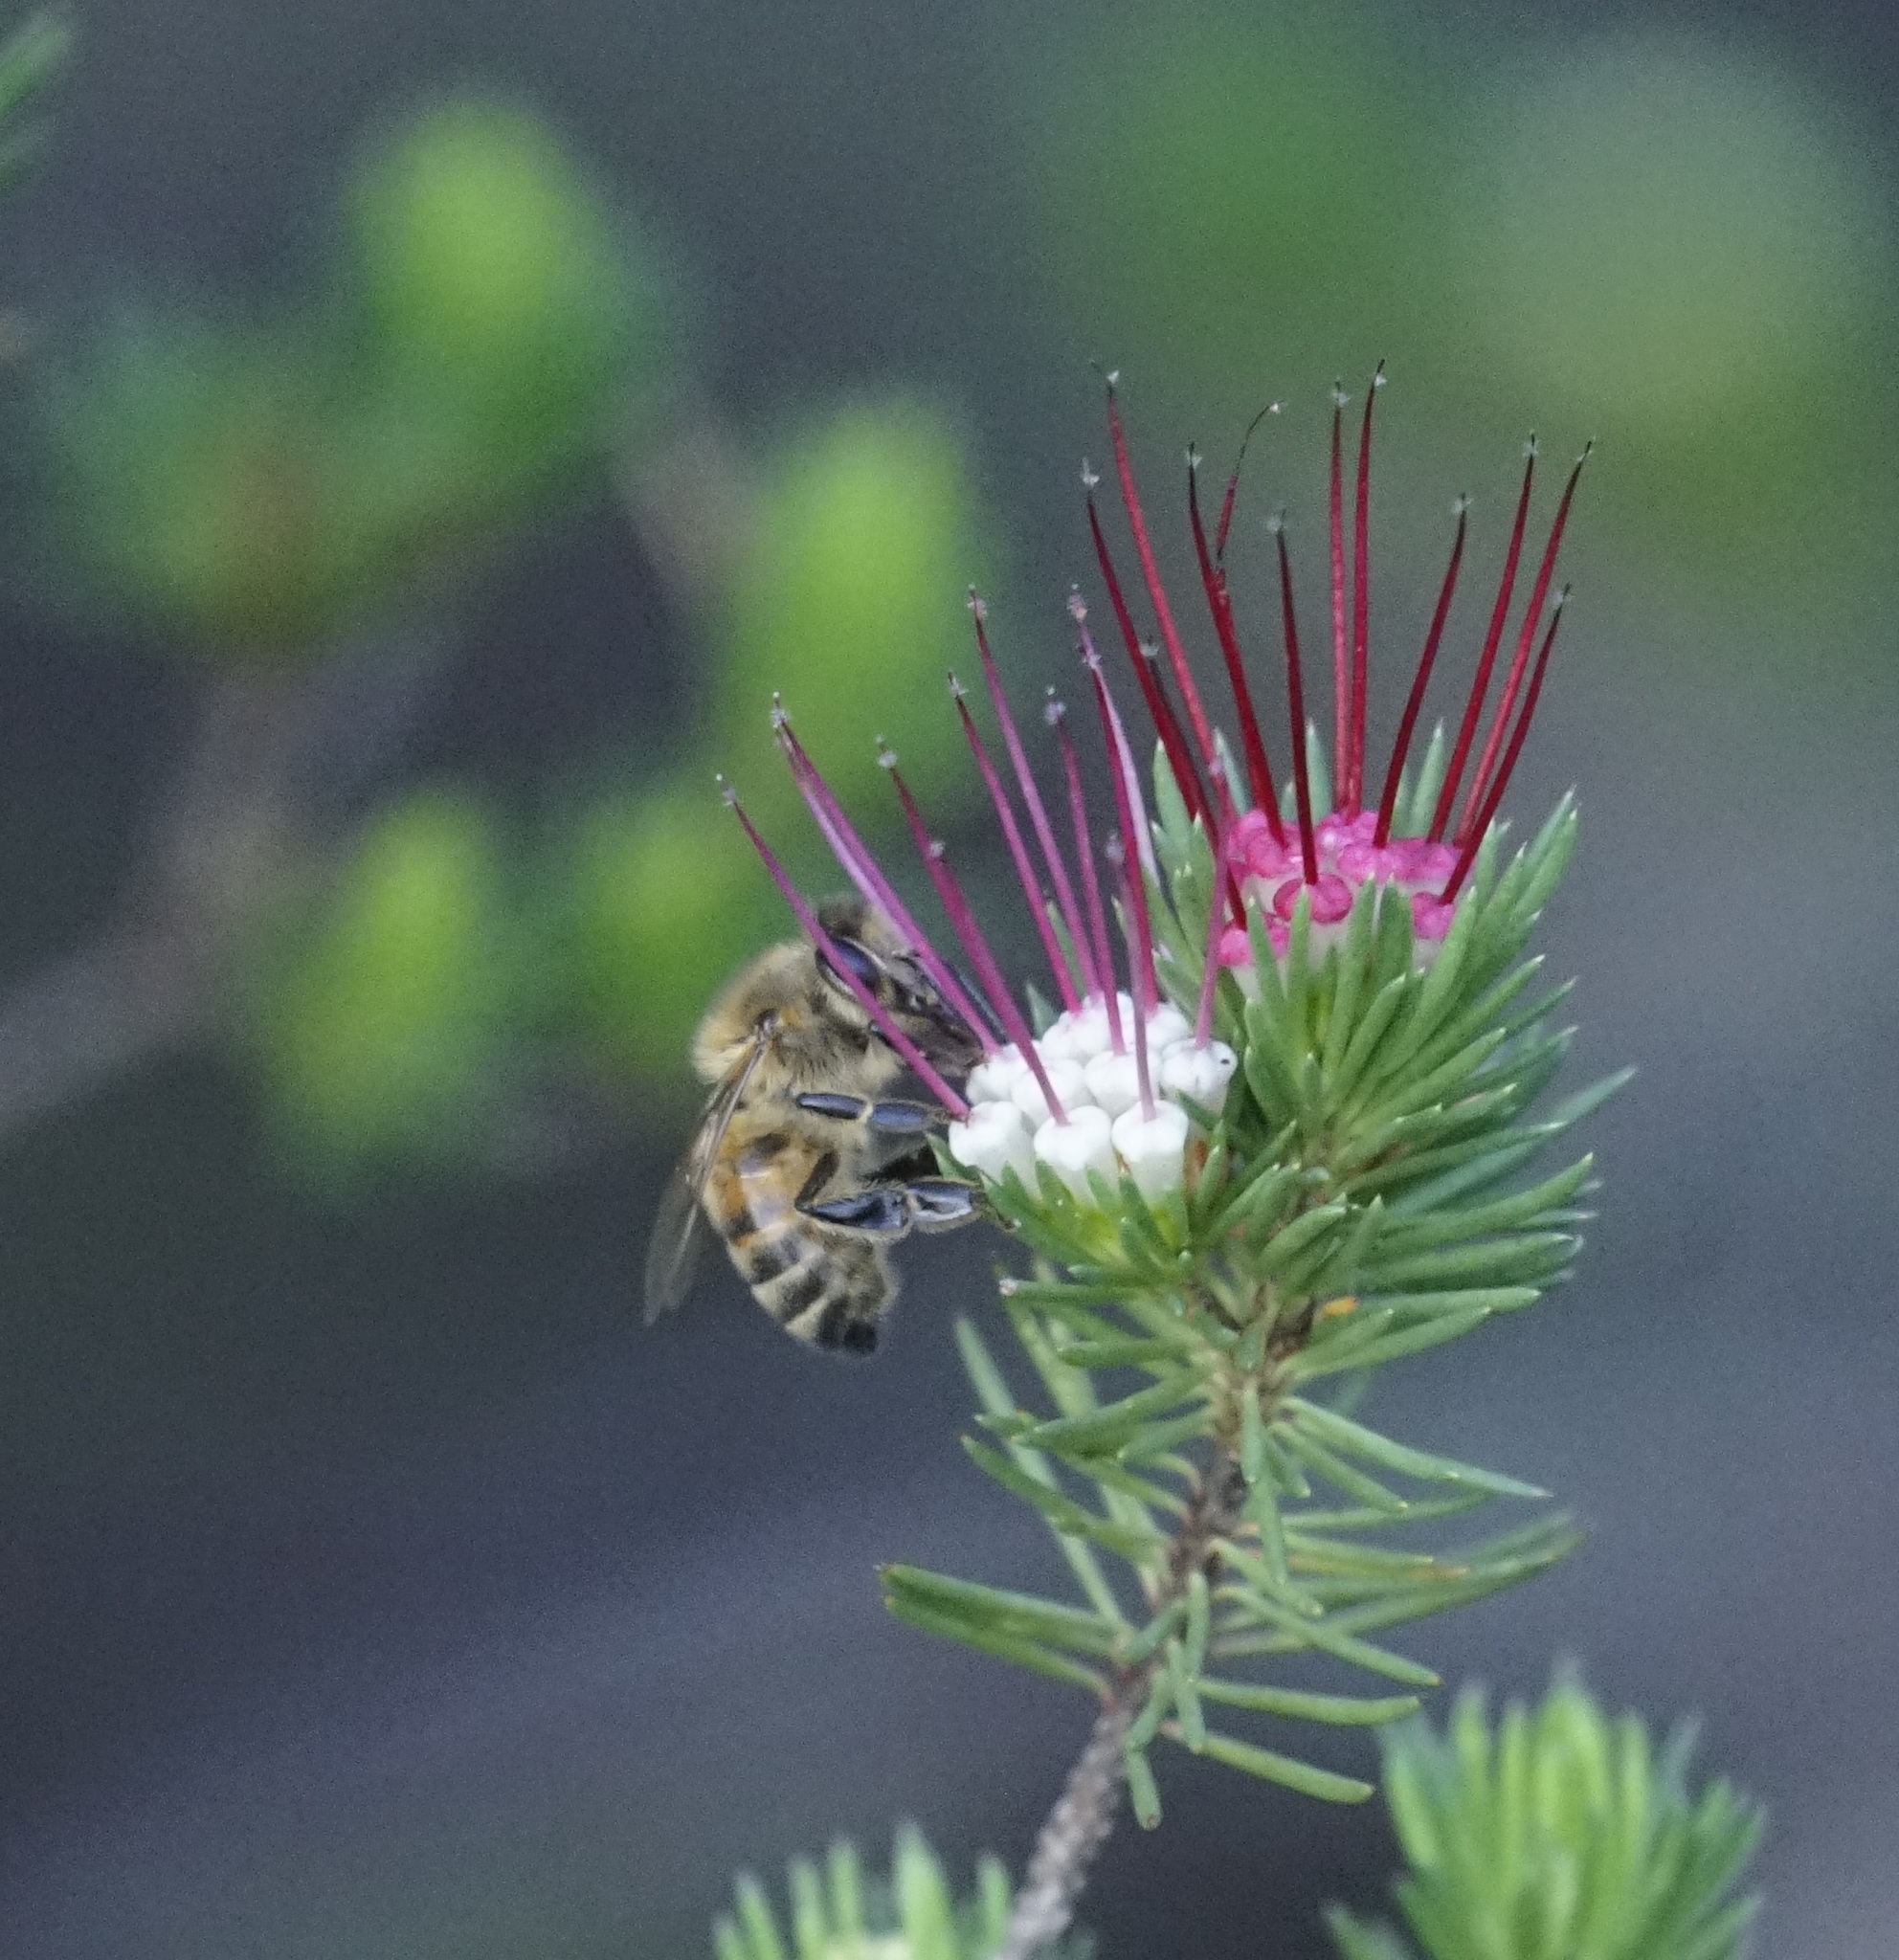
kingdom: Animalia
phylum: Arthropoda
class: Insecta
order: Hymenoptera
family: Apidae
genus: Apis
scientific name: Apis mellifera
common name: Honey bee
